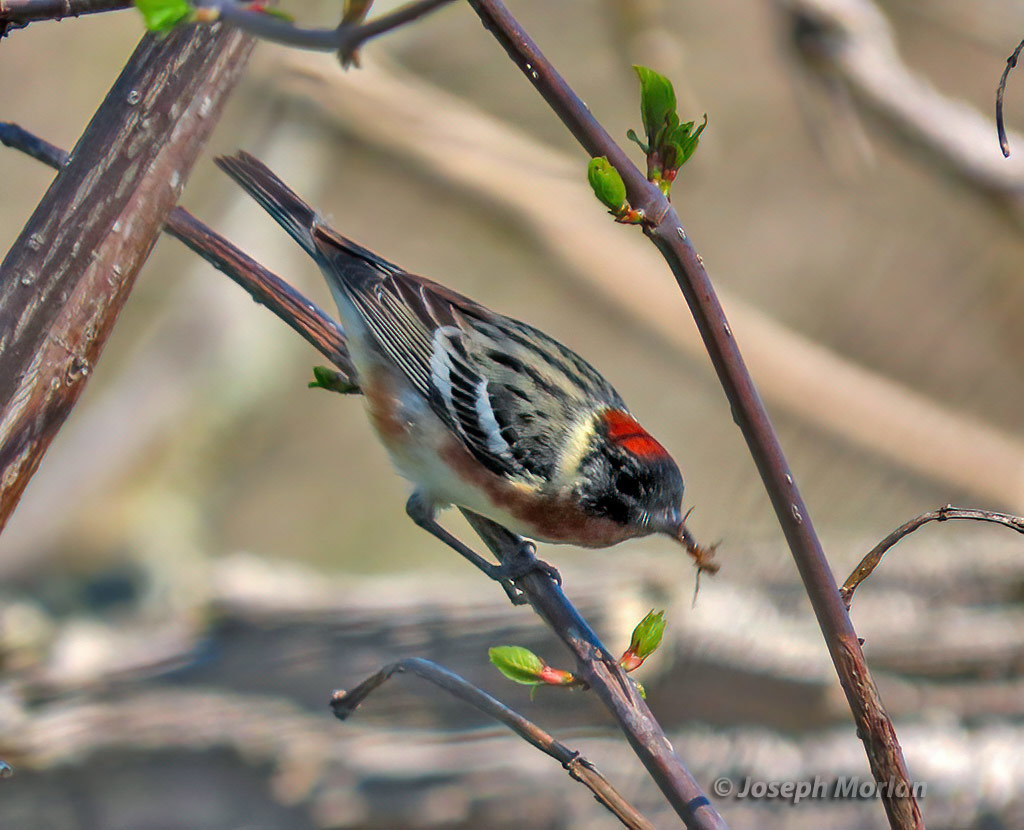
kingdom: Animalia
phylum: Chordata
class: Aves
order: Passeriformes
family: Parulidae
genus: Setophaga
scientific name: Setophaga castanea
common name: Bay-breasted warbler
